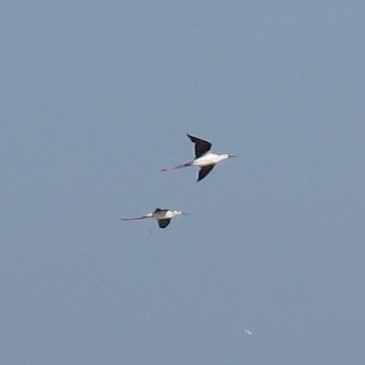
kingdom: Animalia
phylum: Chordata
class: Aves
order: Charadriiformes
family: Recurvirostridae
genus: Himantopus
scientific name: Himantopus himantopus
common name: Black-winged stilt
